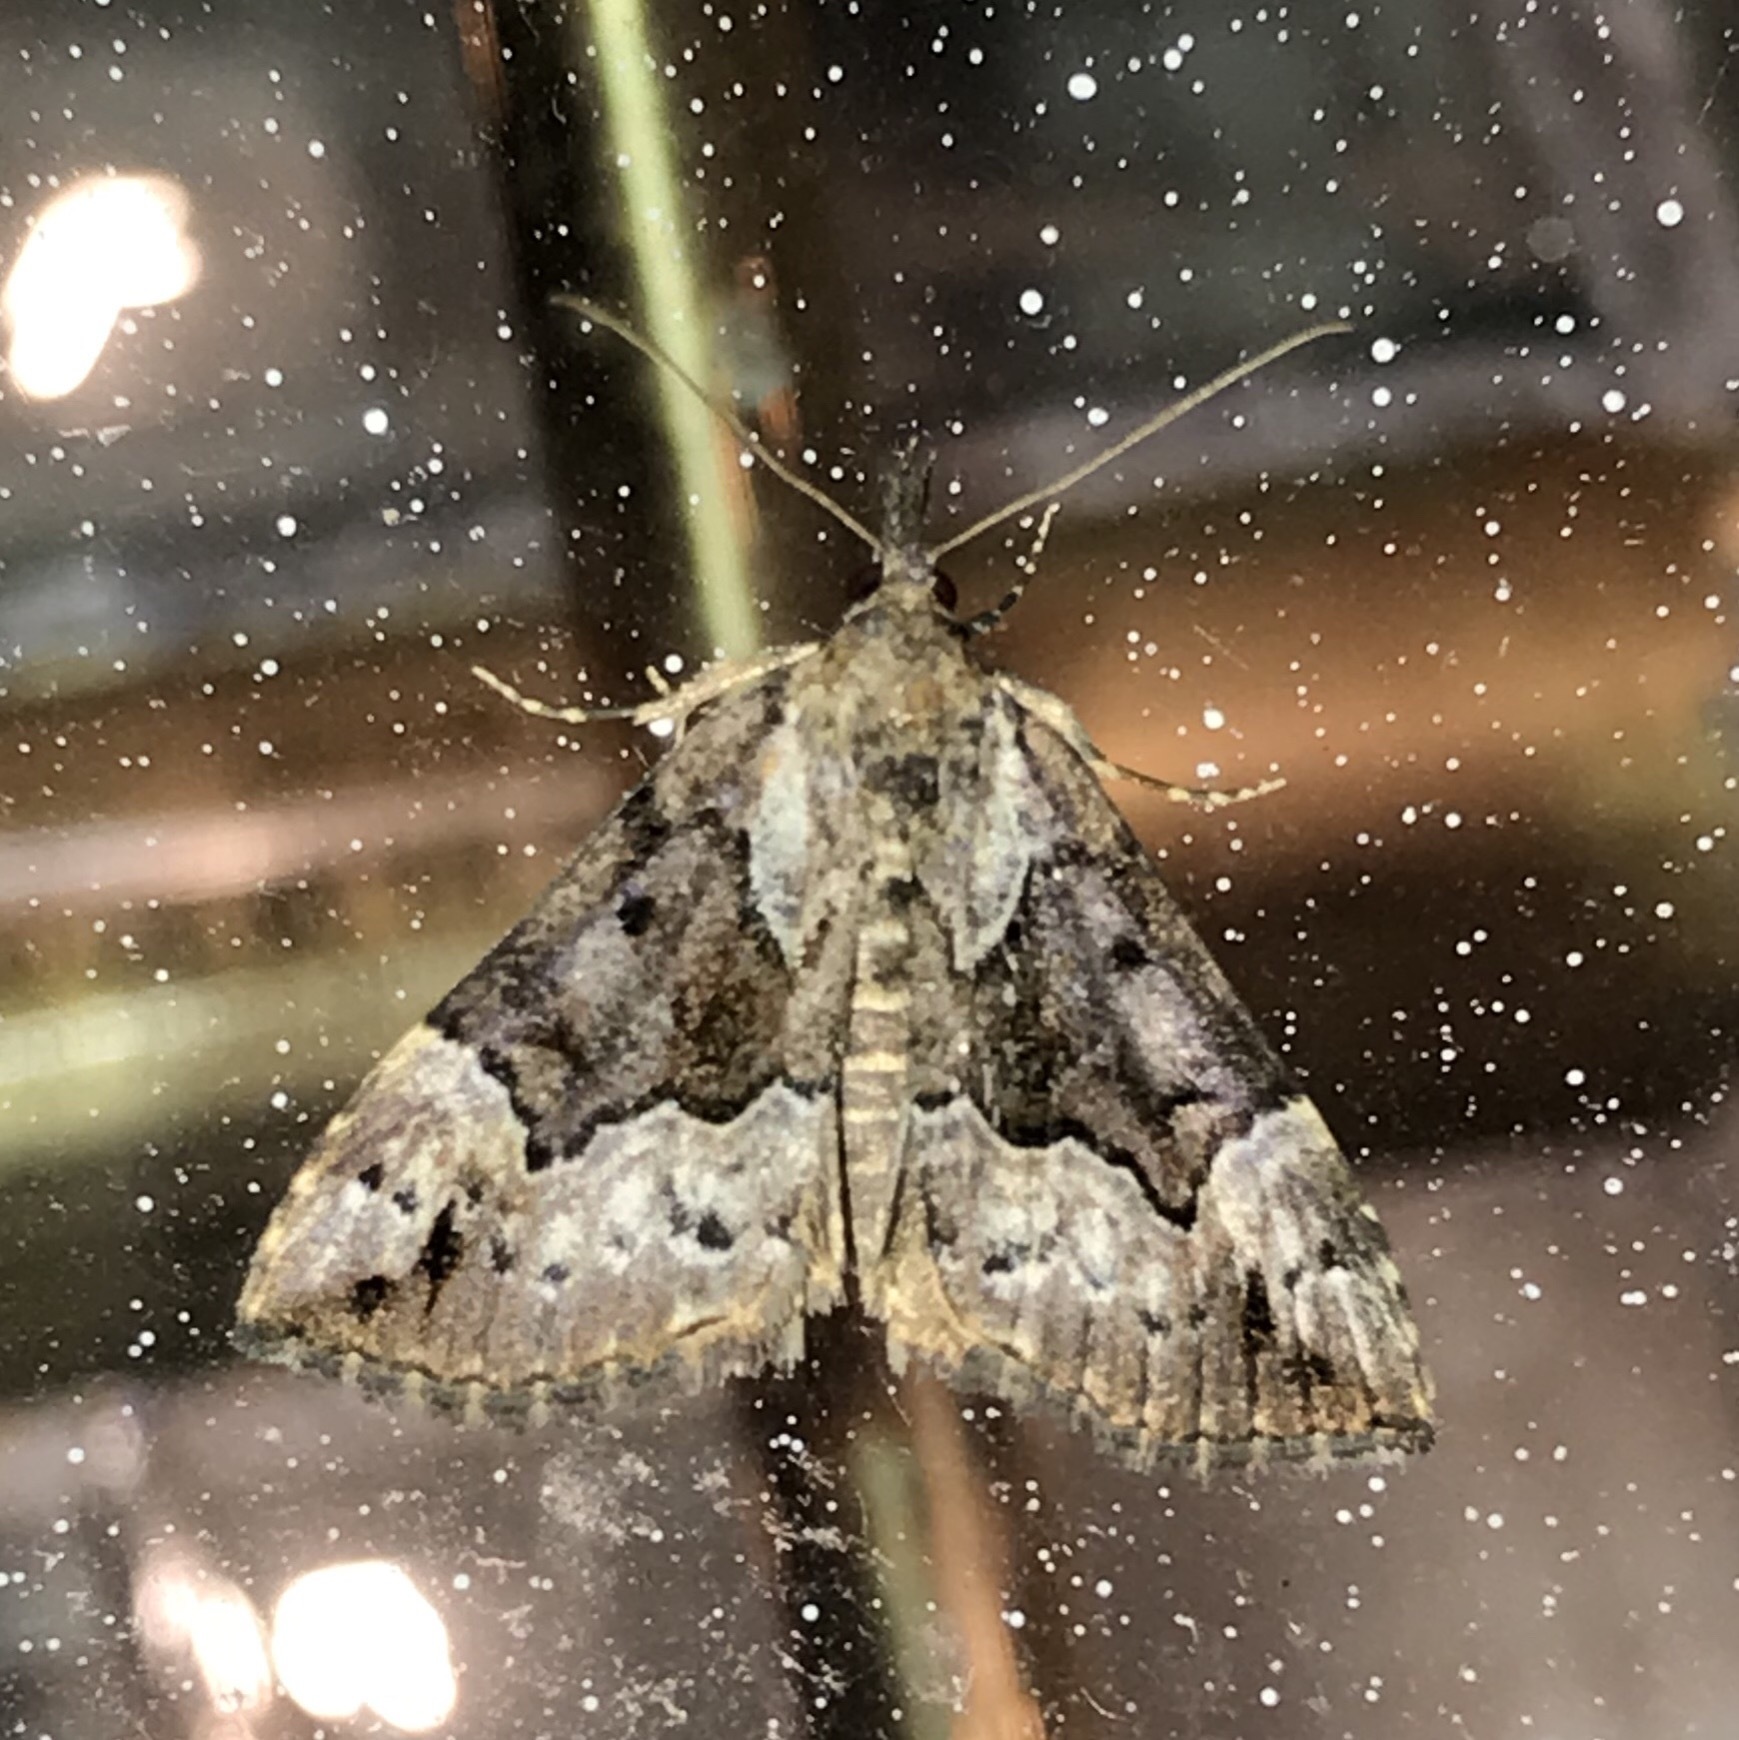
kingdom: Animalia
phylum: Arthropoda
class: Insecta
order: Lepidoptera
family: Erebidae
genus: Hypena
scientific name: Hypena palparia
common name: Mottled bomolocha moth
